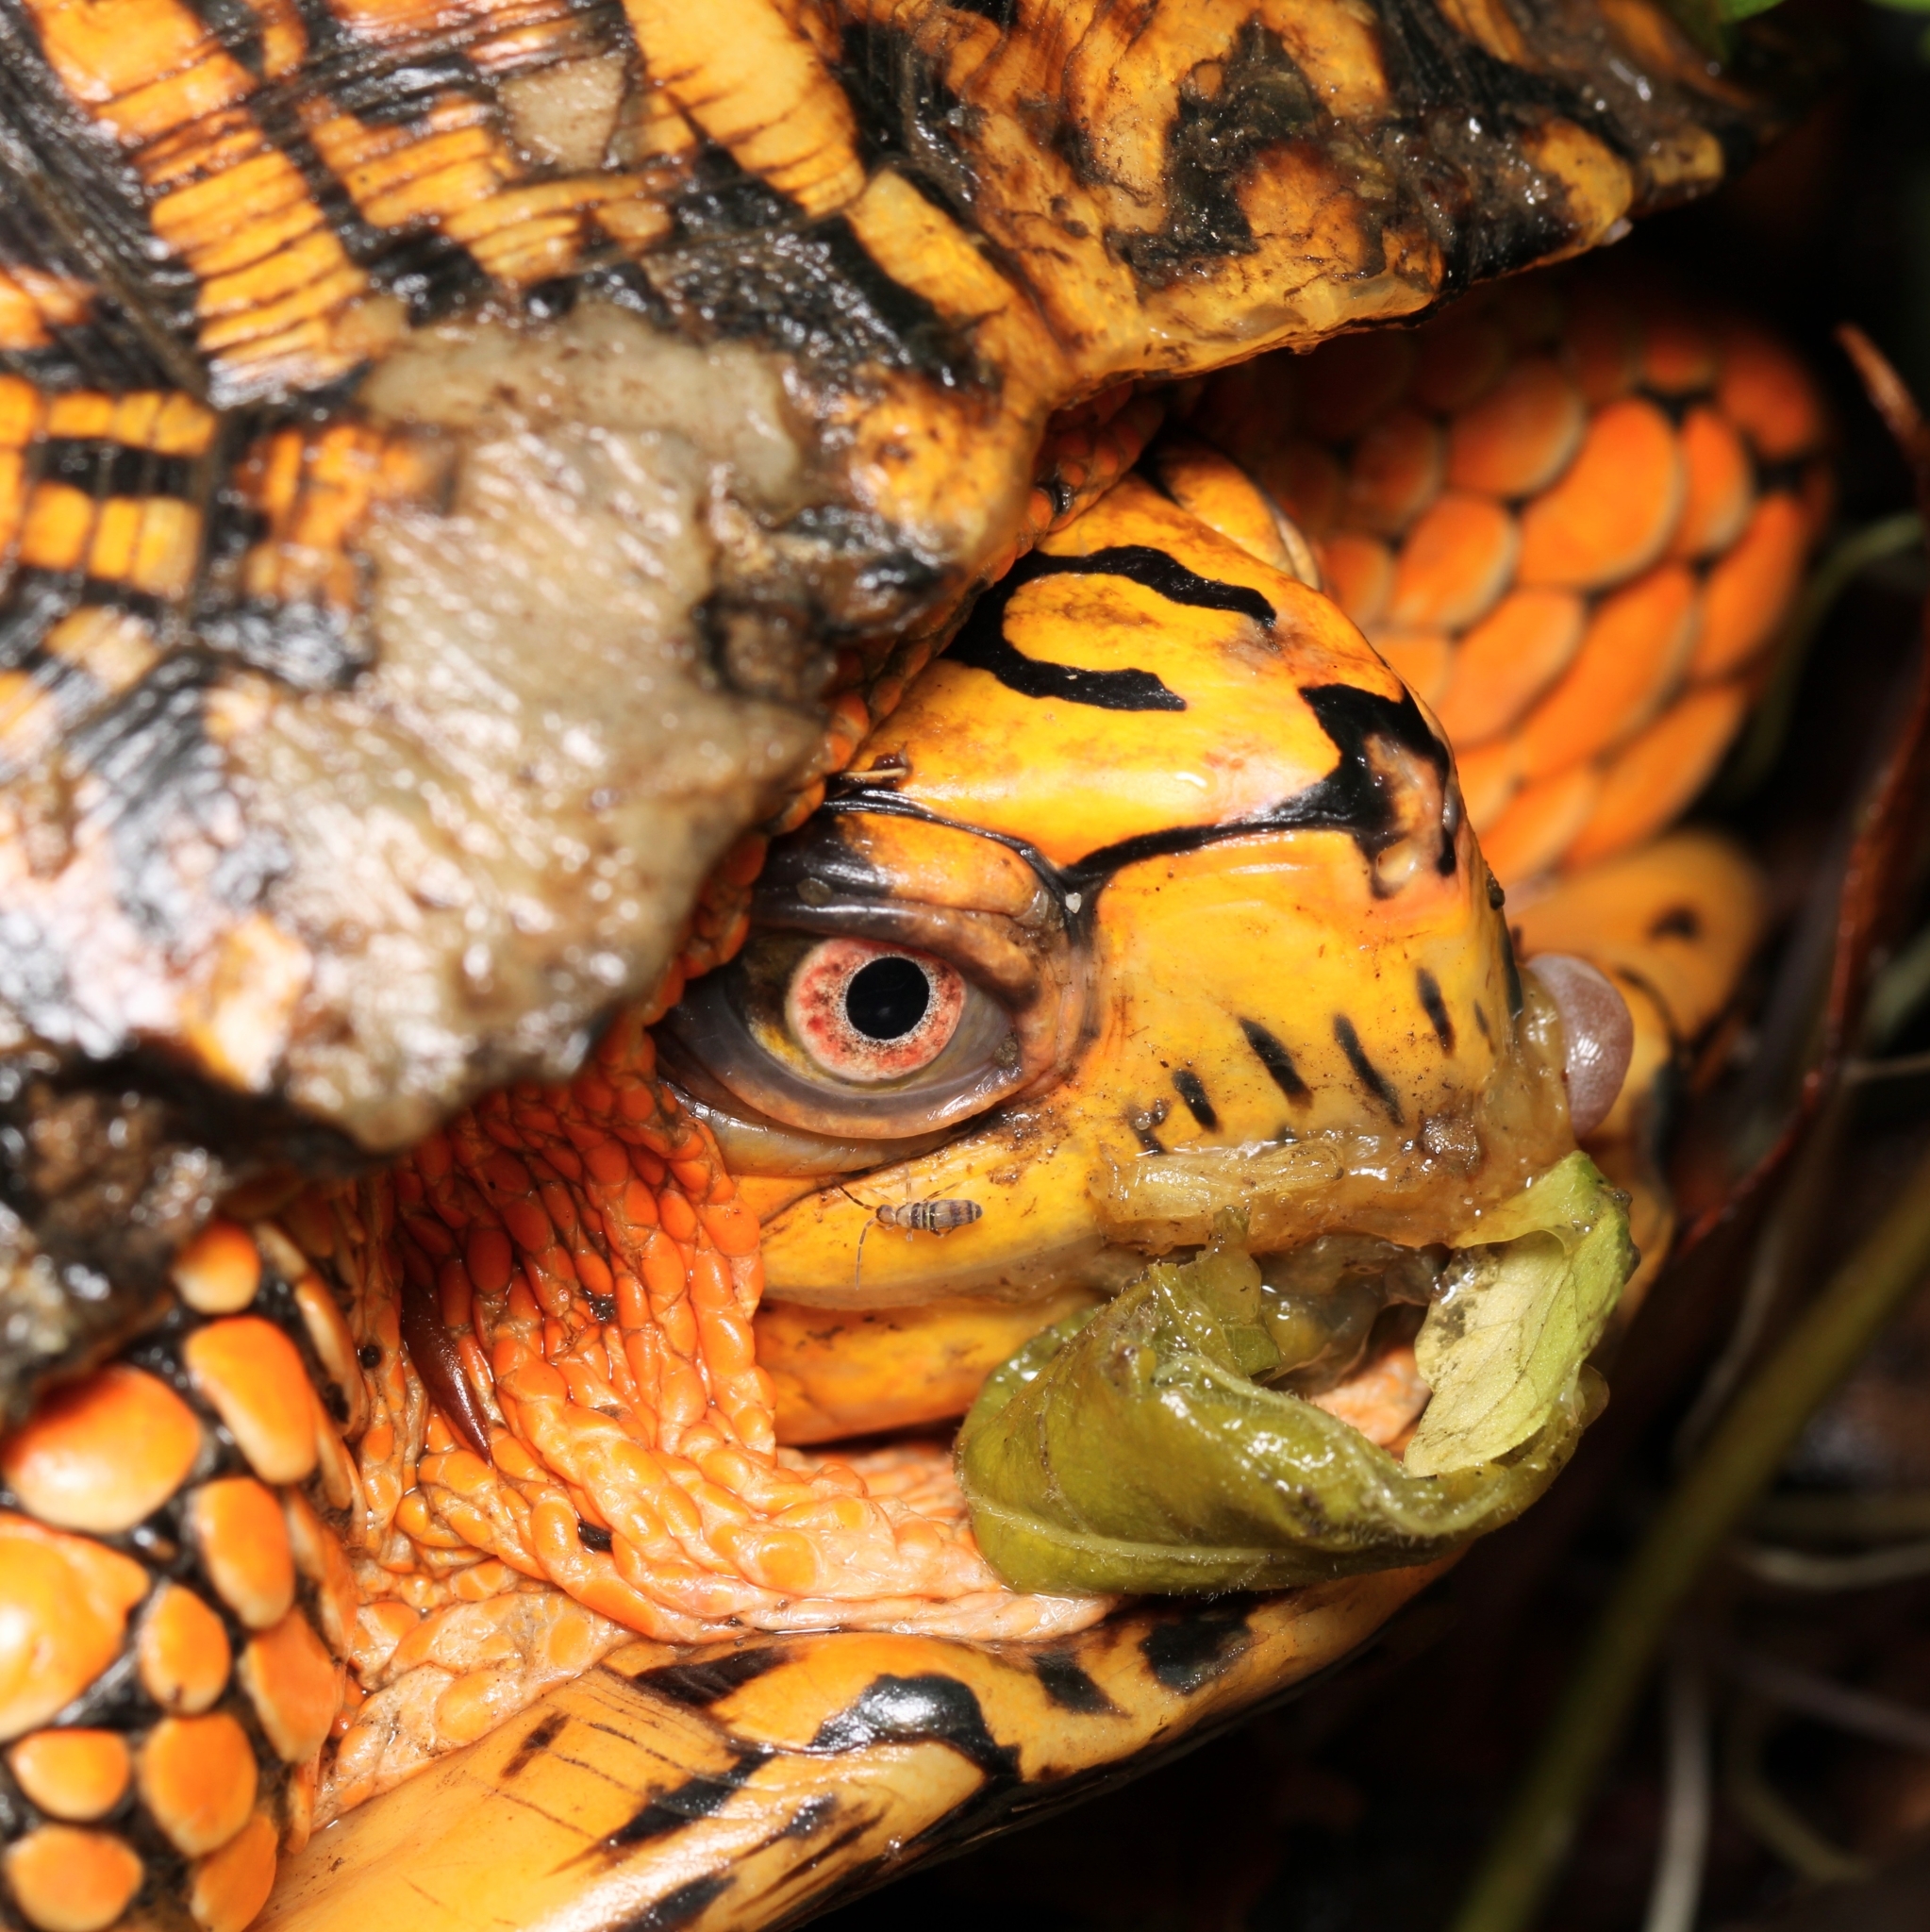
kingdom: Animalia
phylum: Chordata
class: Testudines
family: Emydidae
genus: Terrapene
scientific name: Terrapene carolina
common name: Common box turtle
